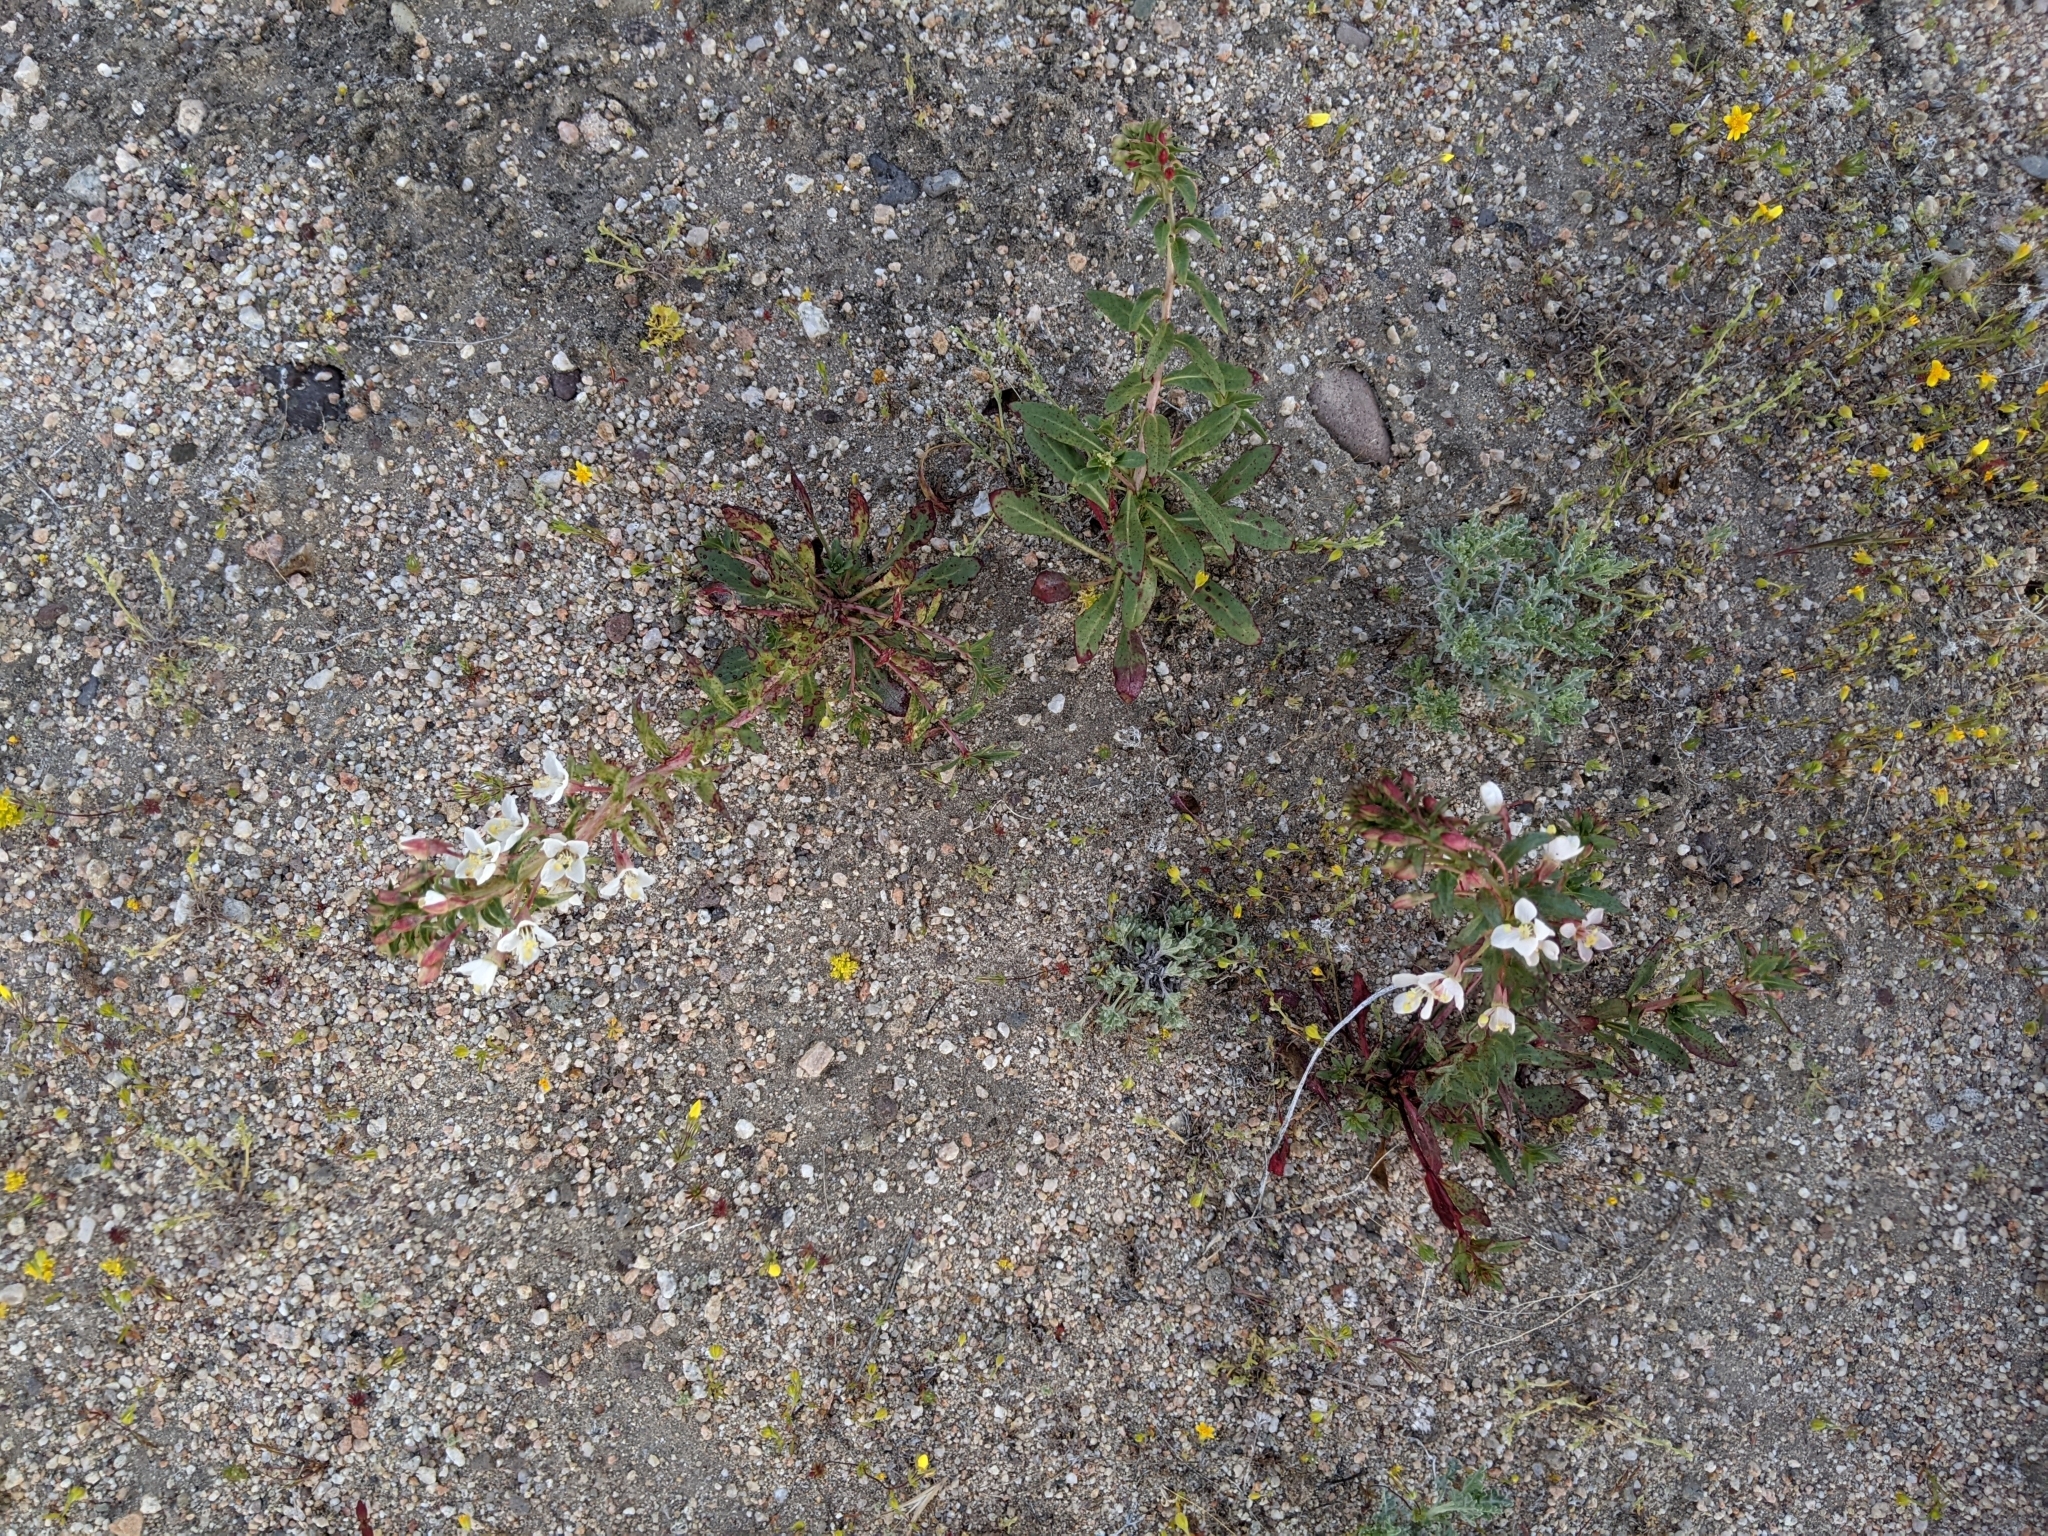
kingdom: Plantae
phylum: Tracheophyta
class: Magnoliopsida
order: Myrtales
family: Onagraceae
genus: Eremothera
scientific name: Eremothera boothii
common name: Booth's evening primrose
